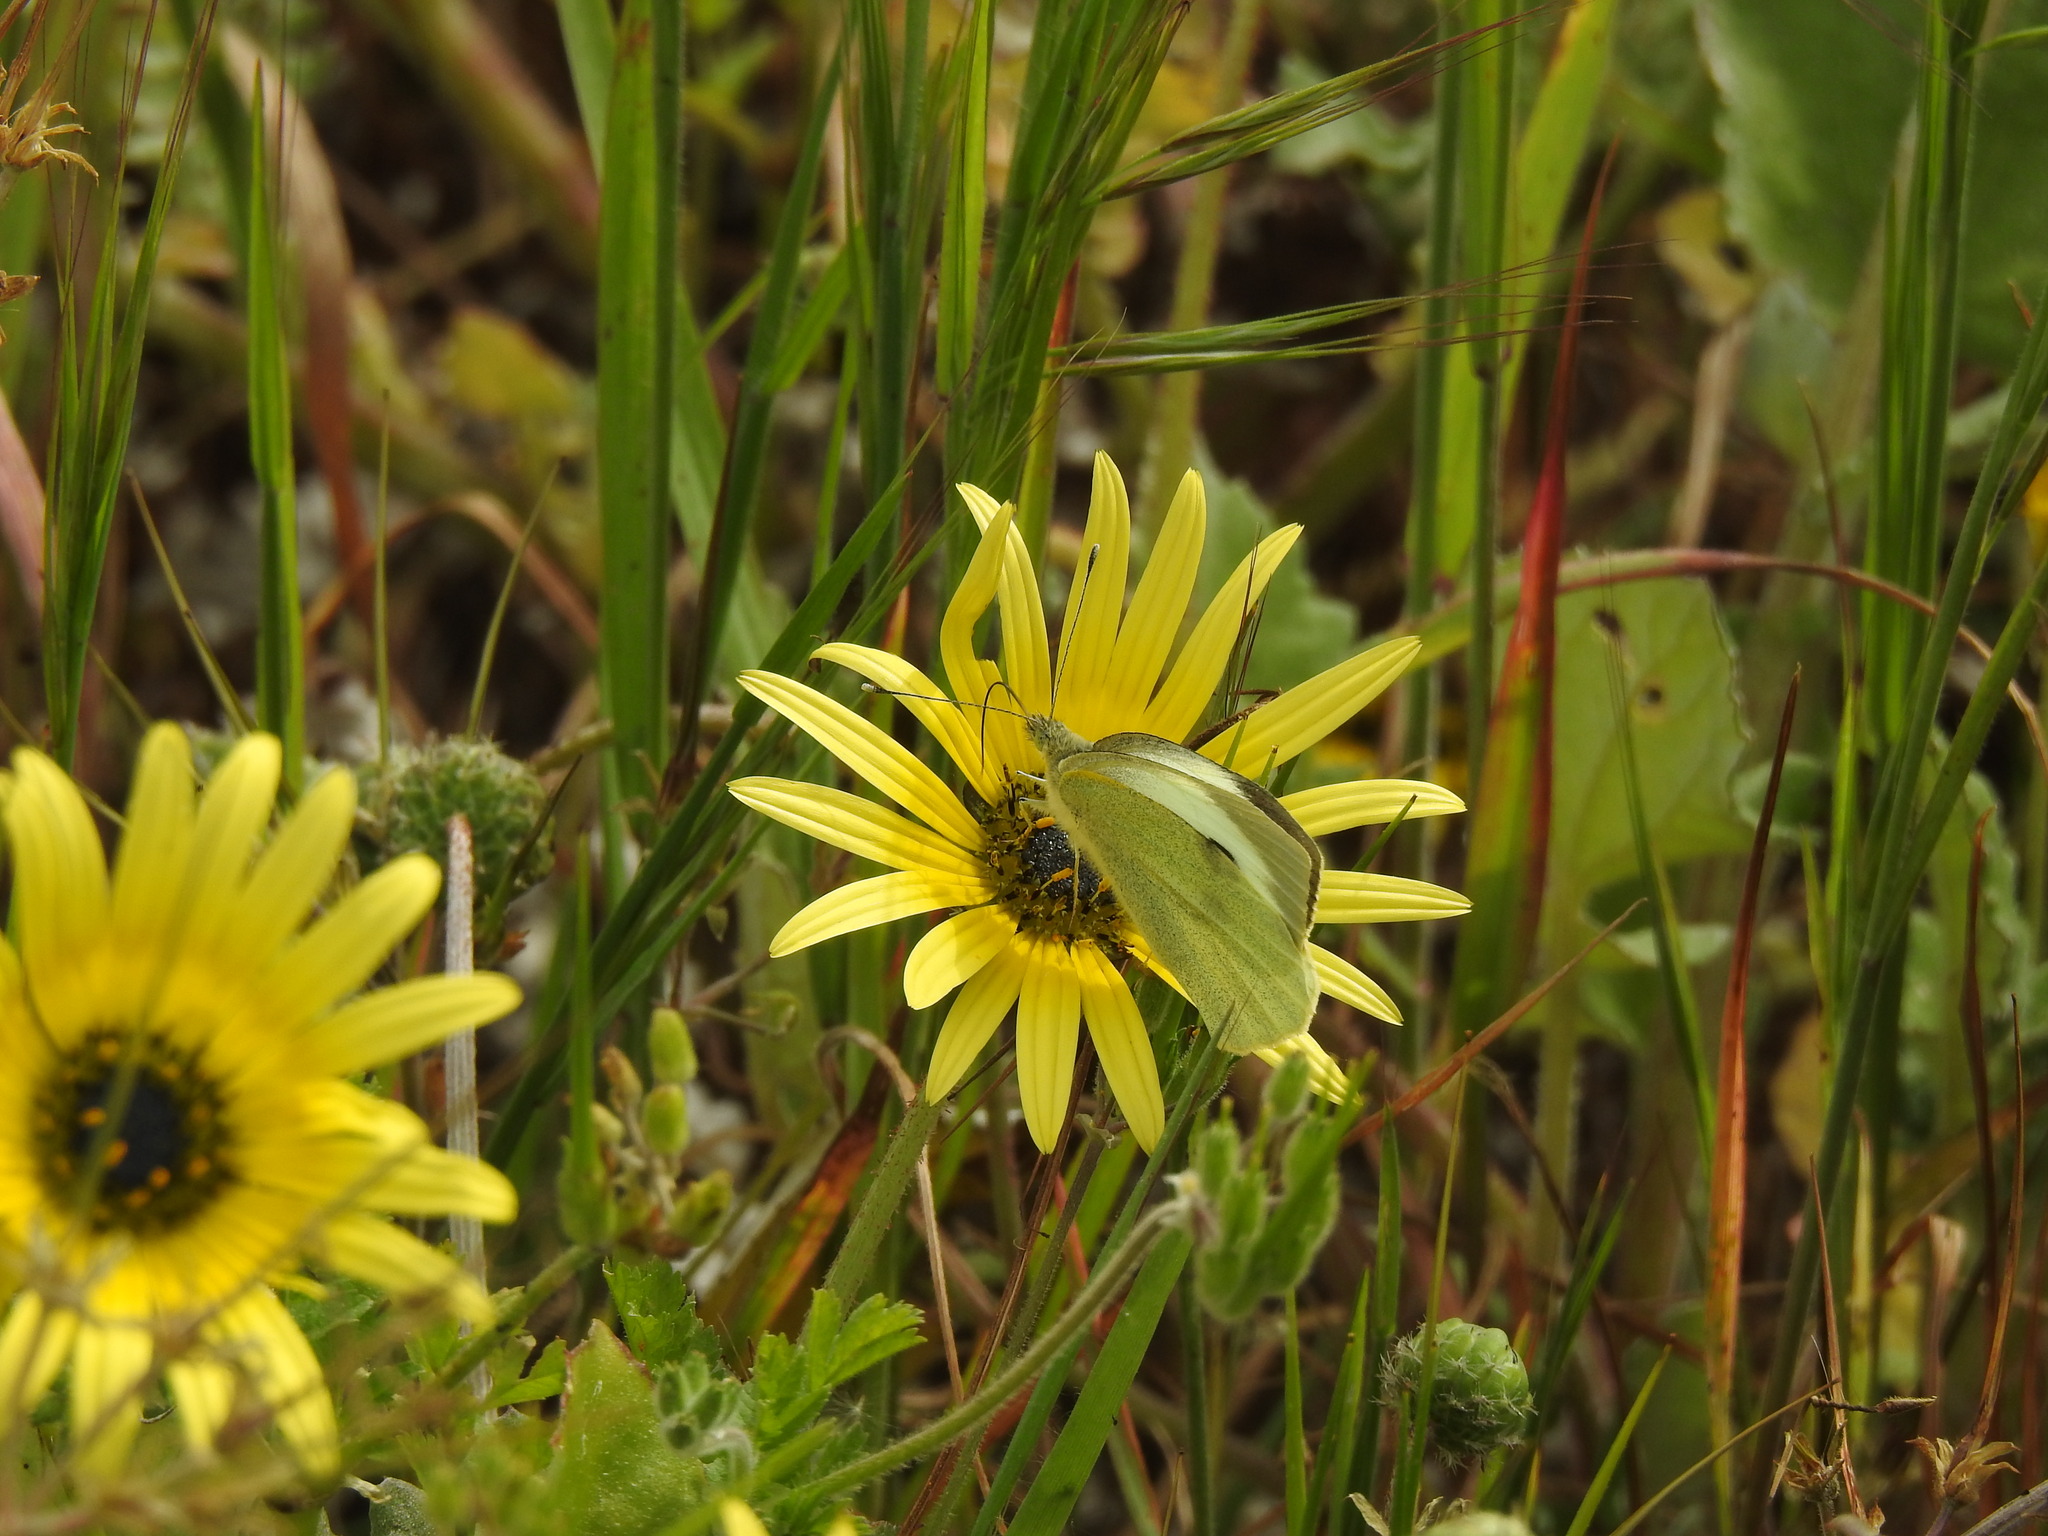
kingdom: Animalia
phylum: Arthropoda
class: Insecta
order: Lepidoptera
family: Pieridae
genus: Pieris
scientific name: Pieris brassicae
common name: Large white
